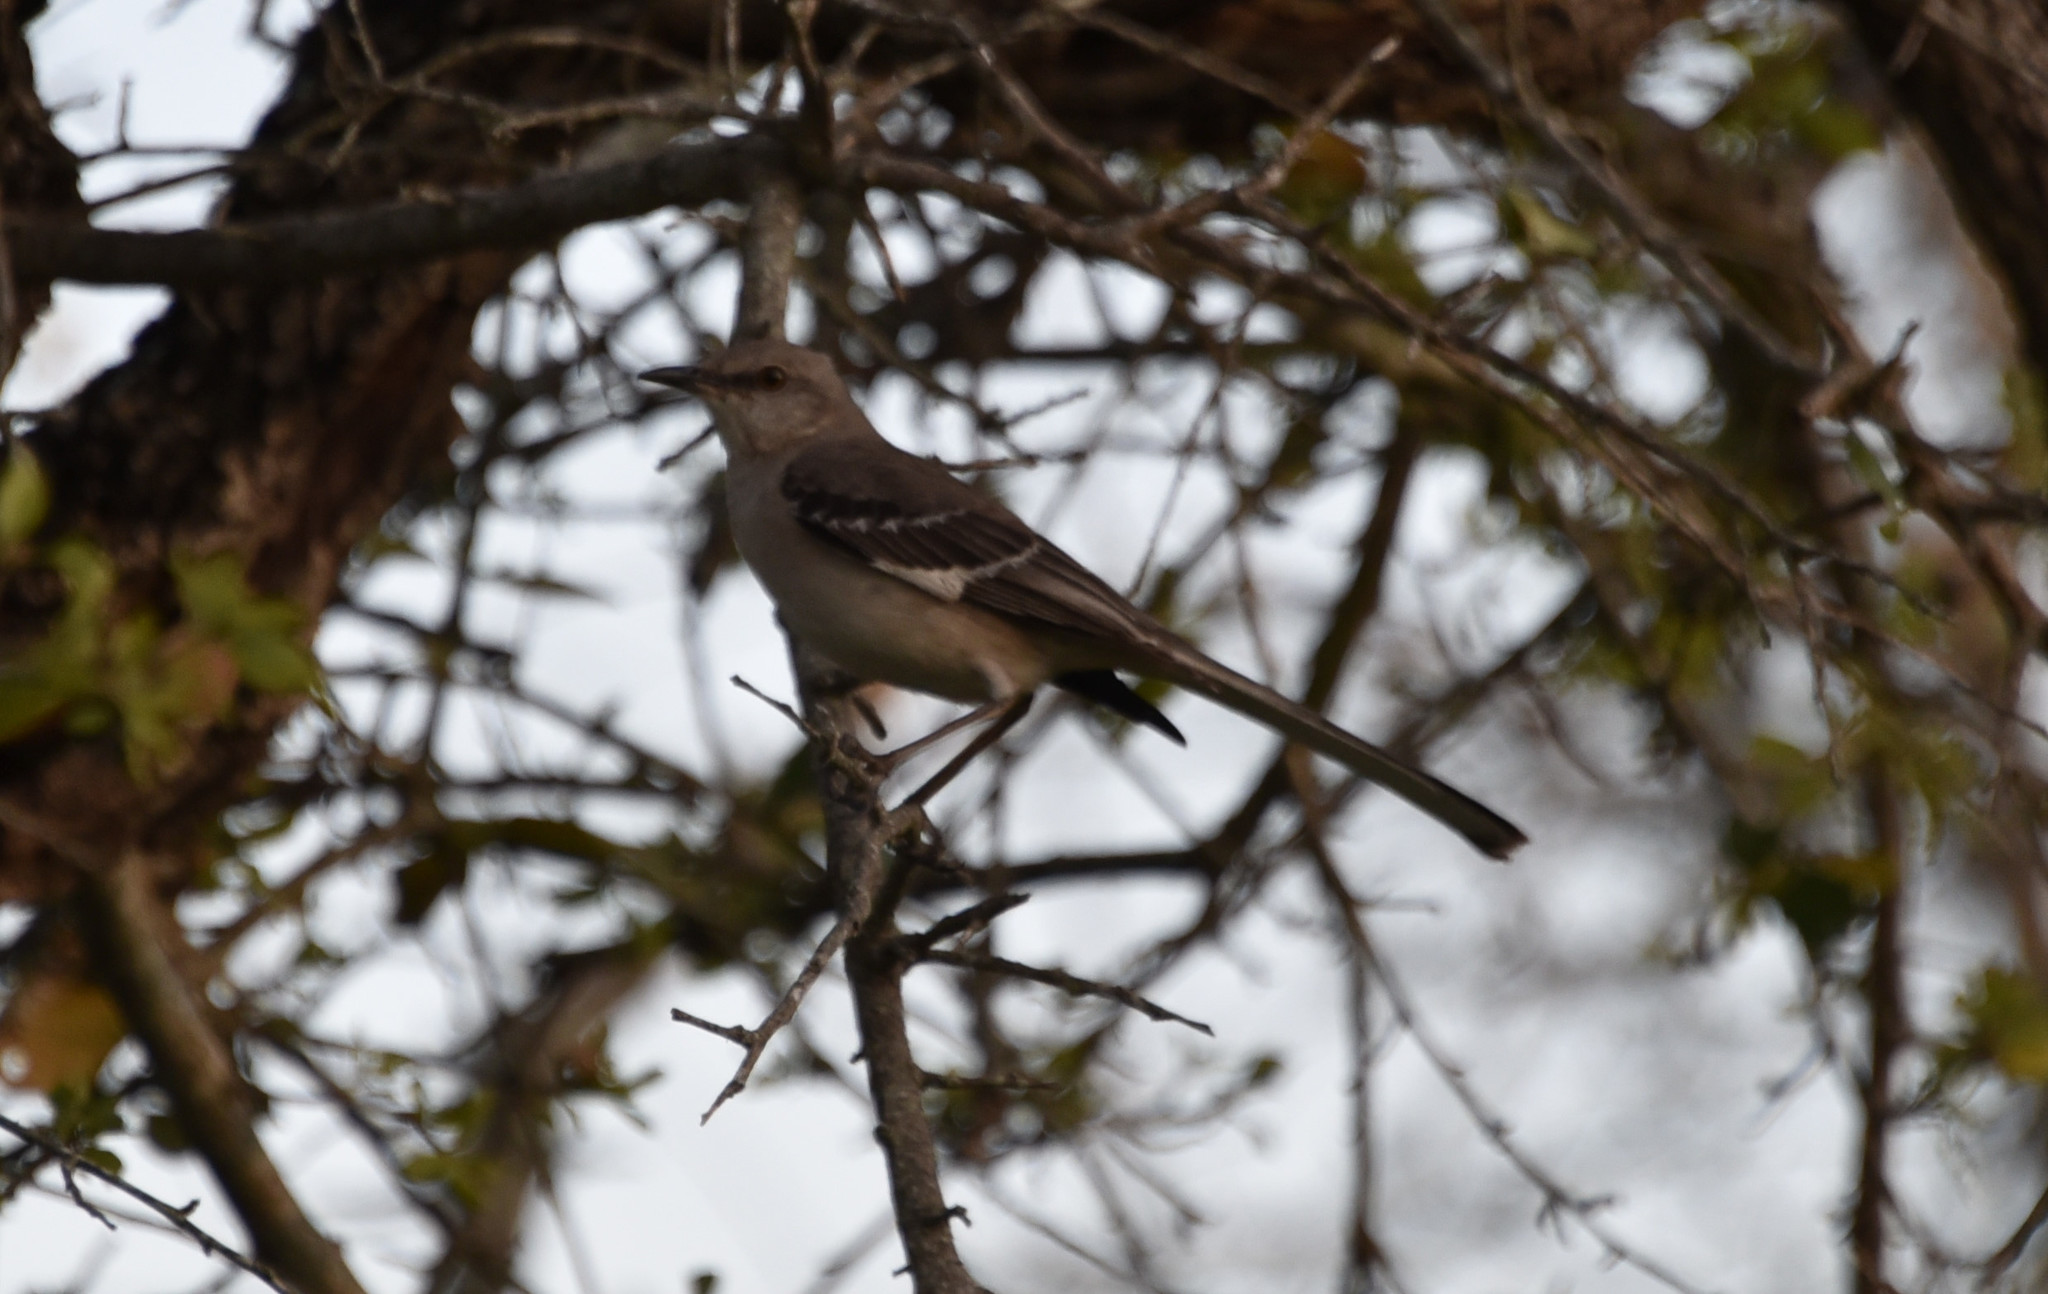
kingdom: Animalia
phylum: Chordata
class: Aves
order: Passeriformes
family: Mimidae
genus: Mimus
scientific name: Mimus polyglottos
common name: Northern mockingbird
